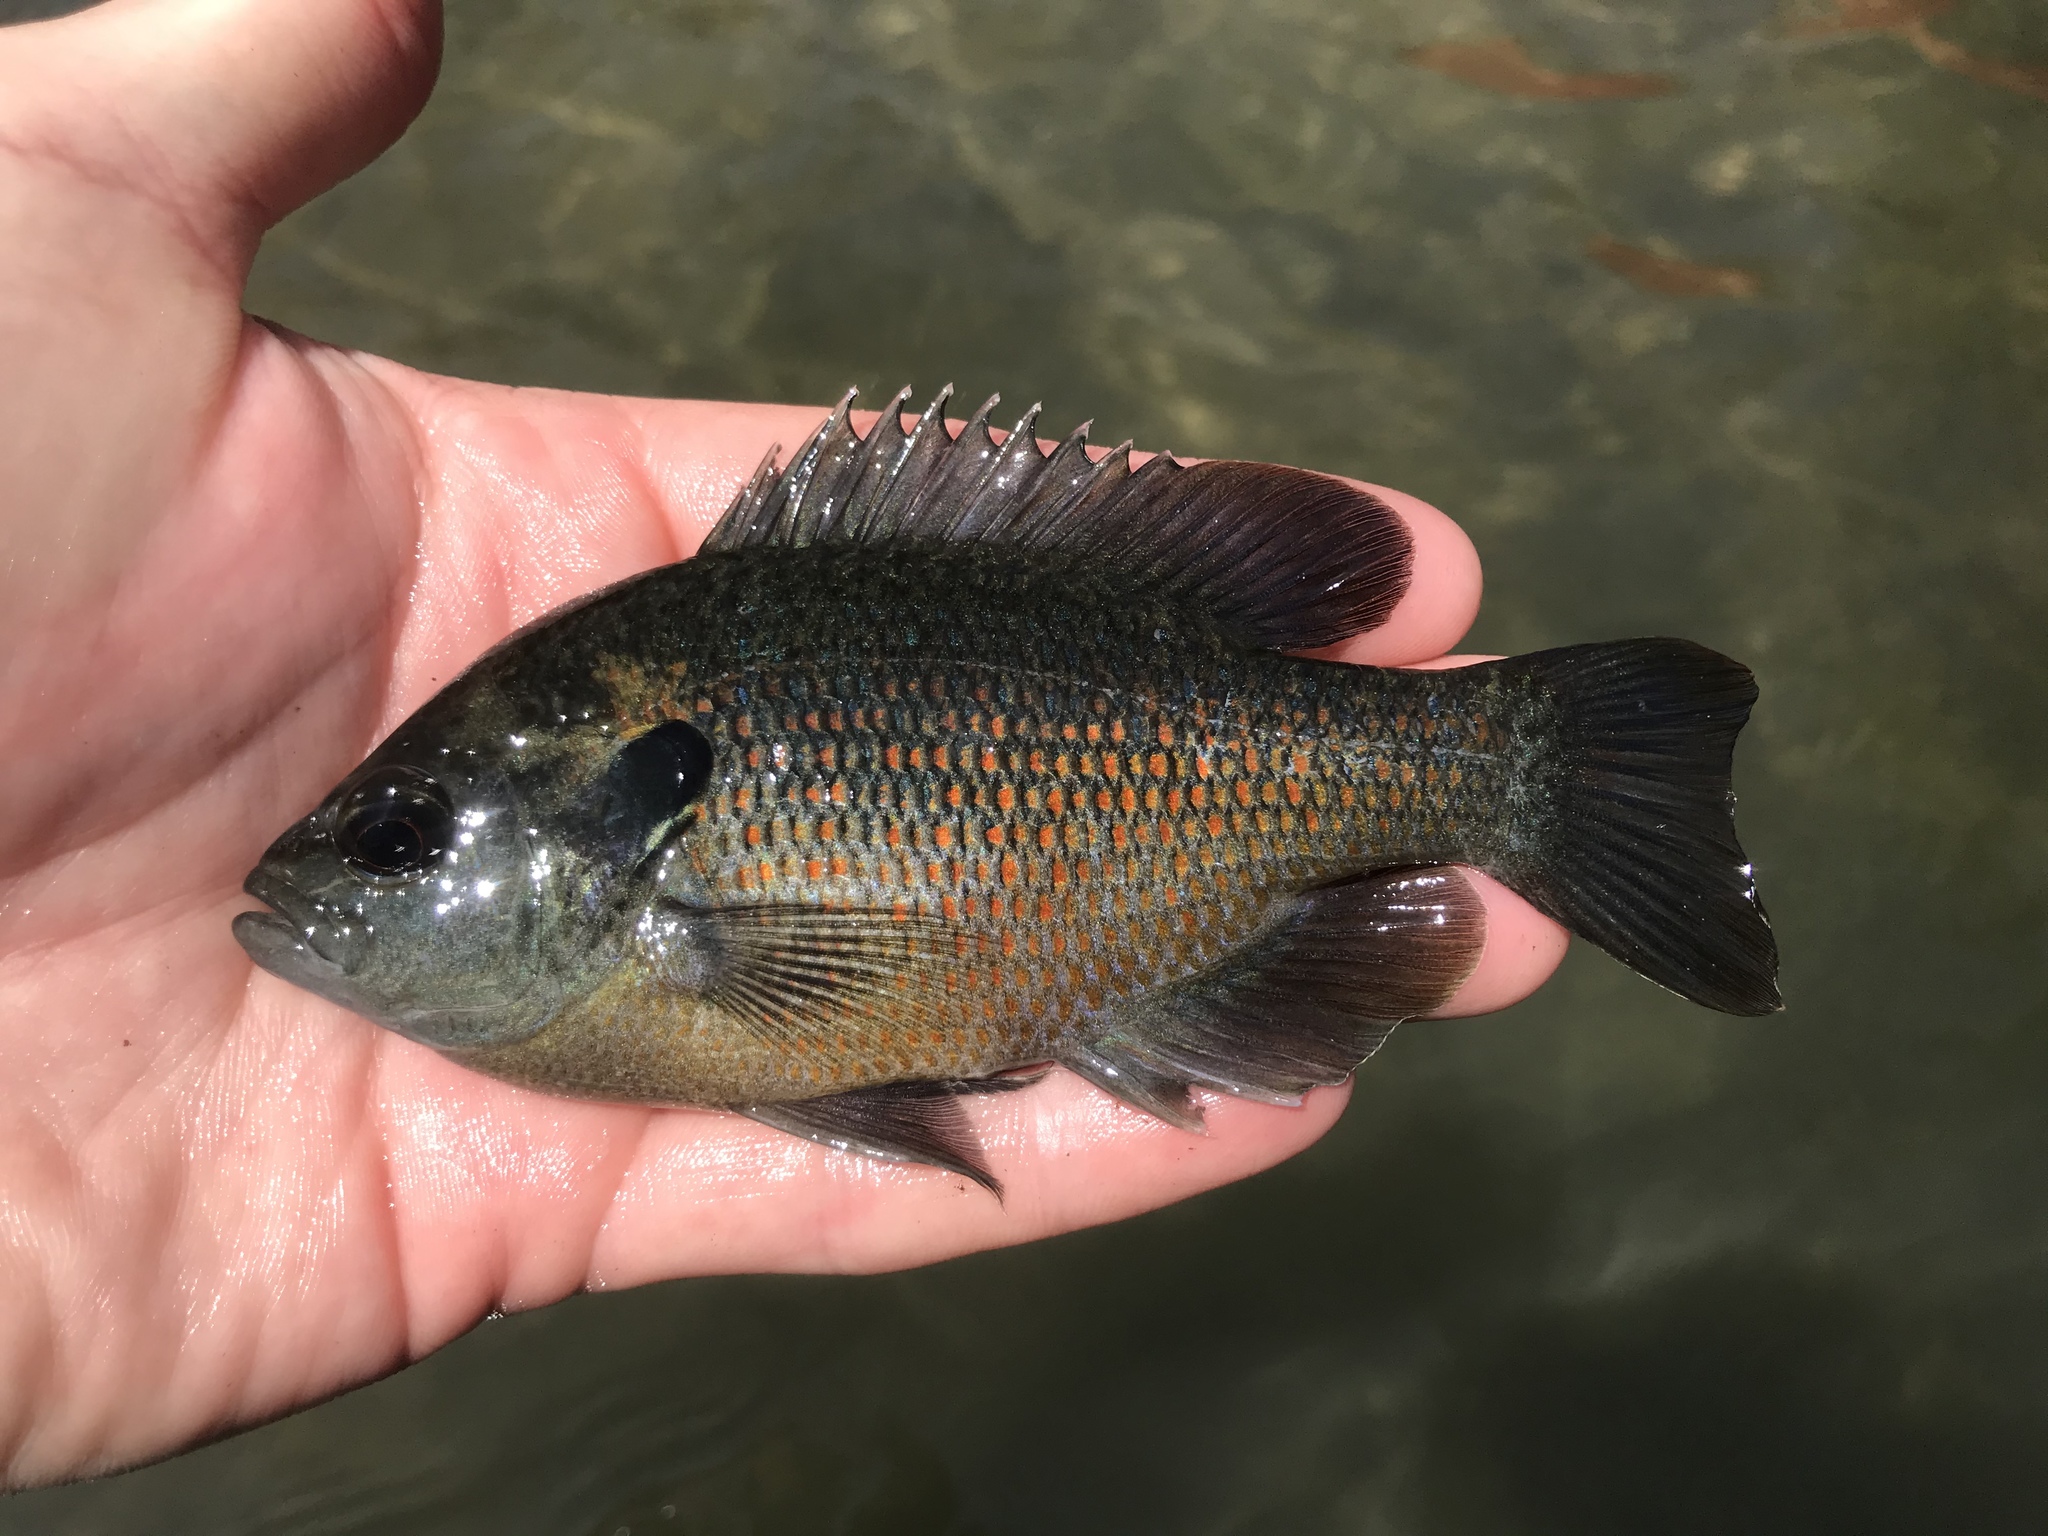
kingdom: Animalia
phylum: Chordata
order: Perciformes
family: Centrarchidae
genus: Lepomis
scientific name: Lepomis miniatus
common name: Redspotted sunfish
